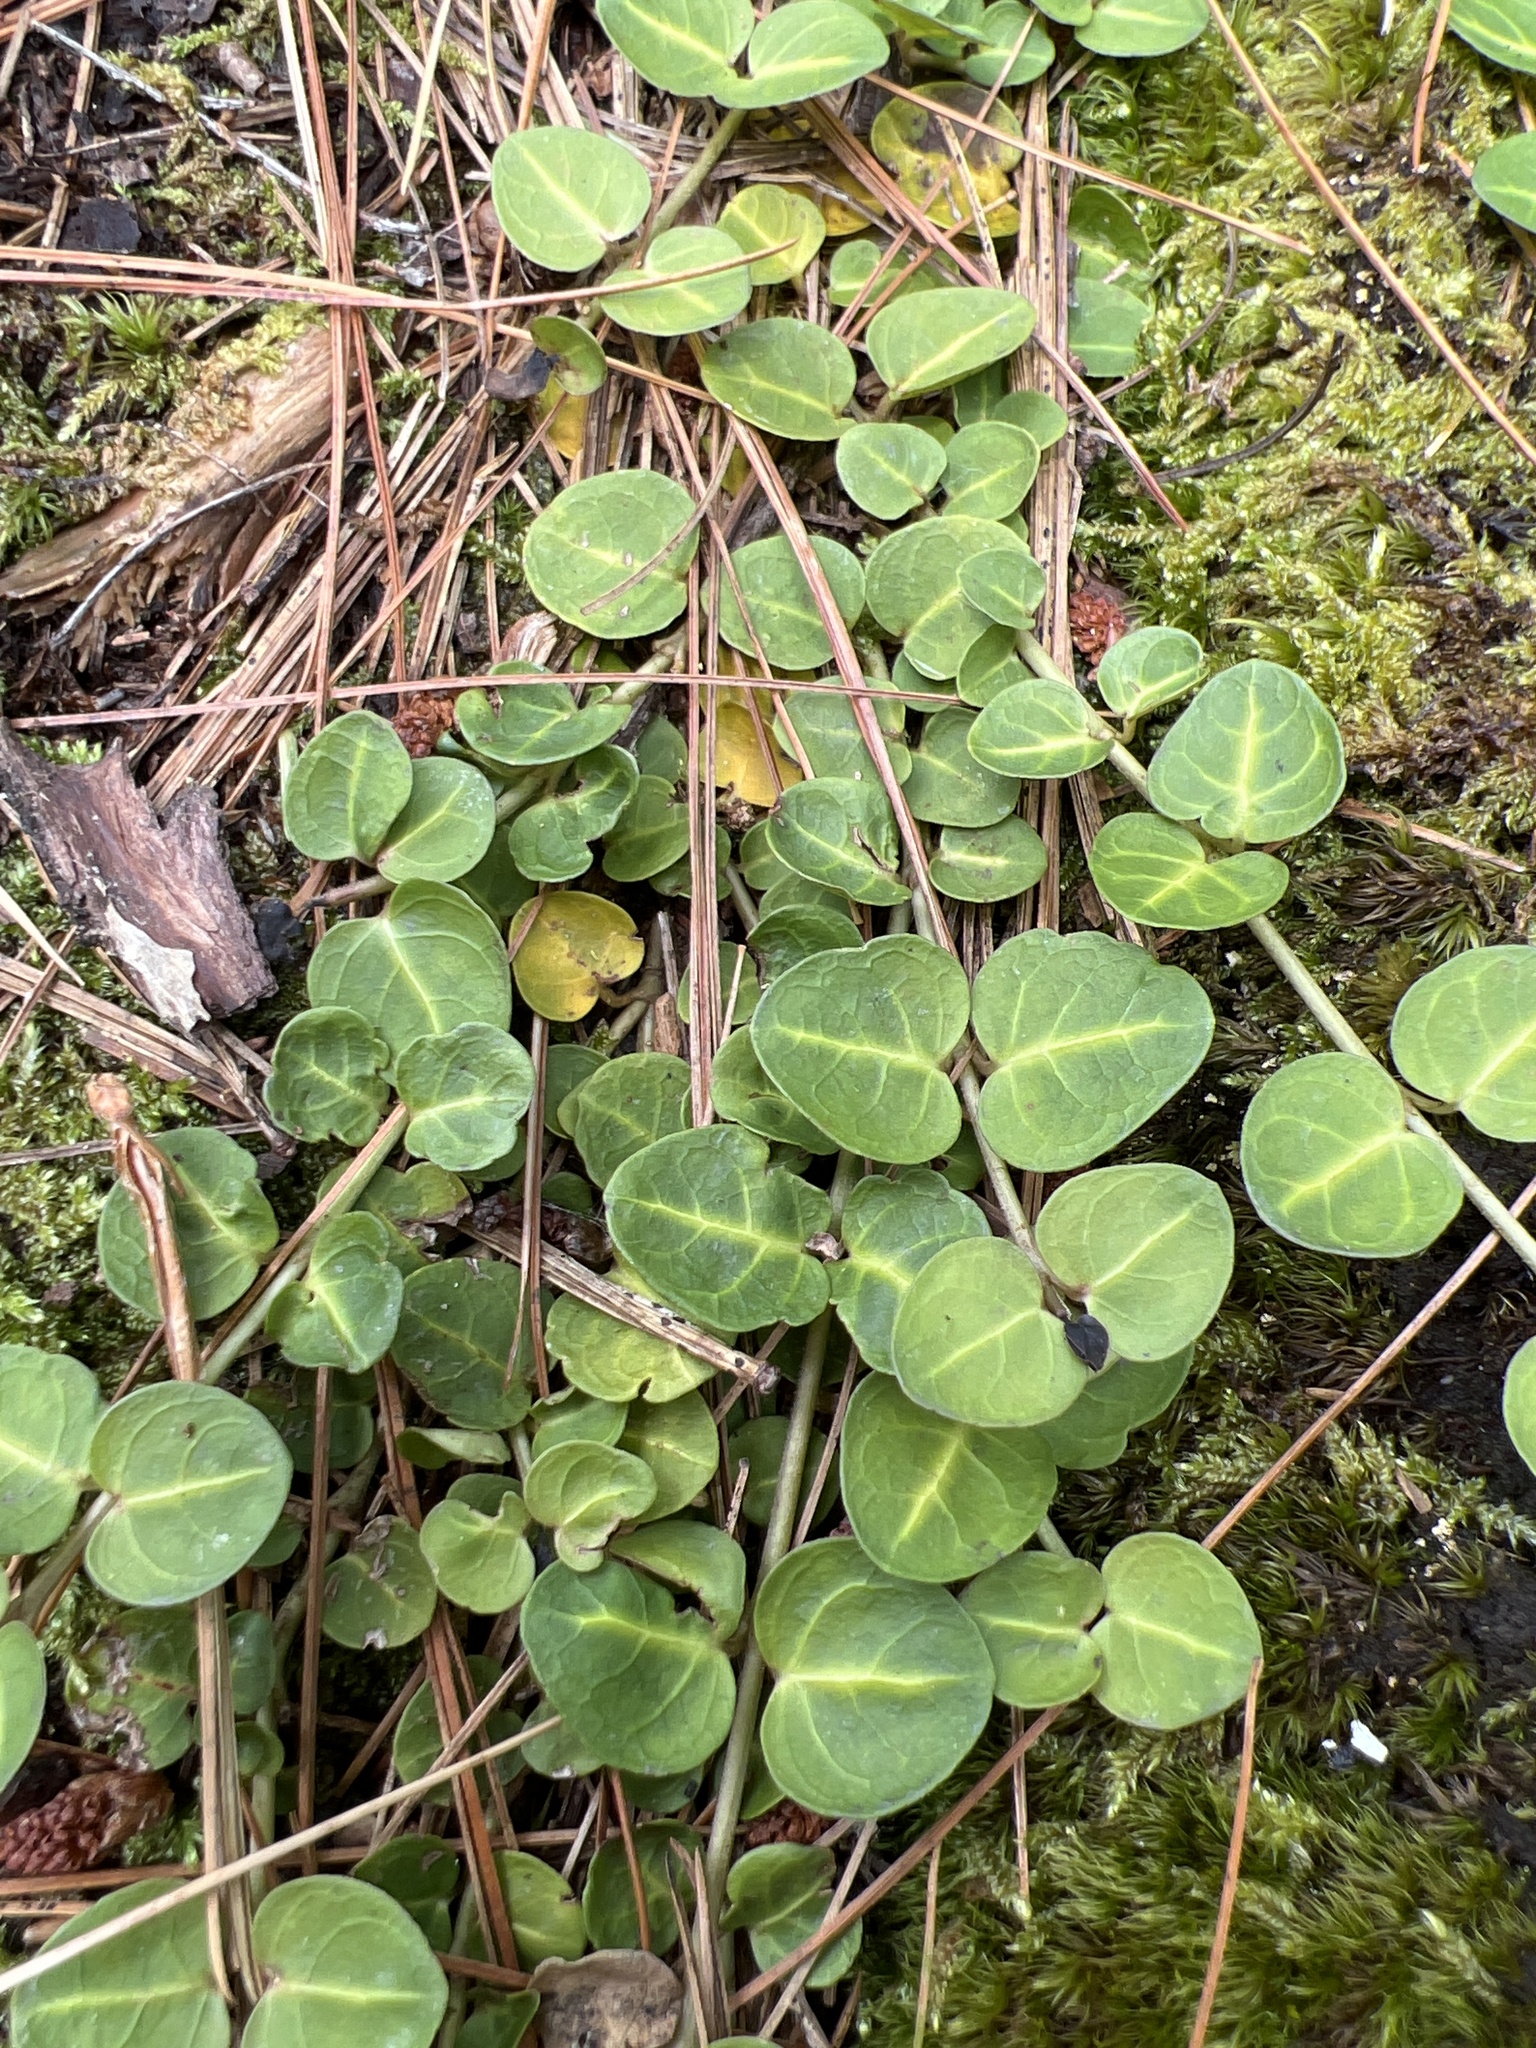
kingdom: Plantae
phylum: Tracheophyta
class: Magnoliopsida
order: Gentianales
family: Rubiaceae
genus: Mitchella
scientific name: Mitchella repens
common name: Partridge-berry
